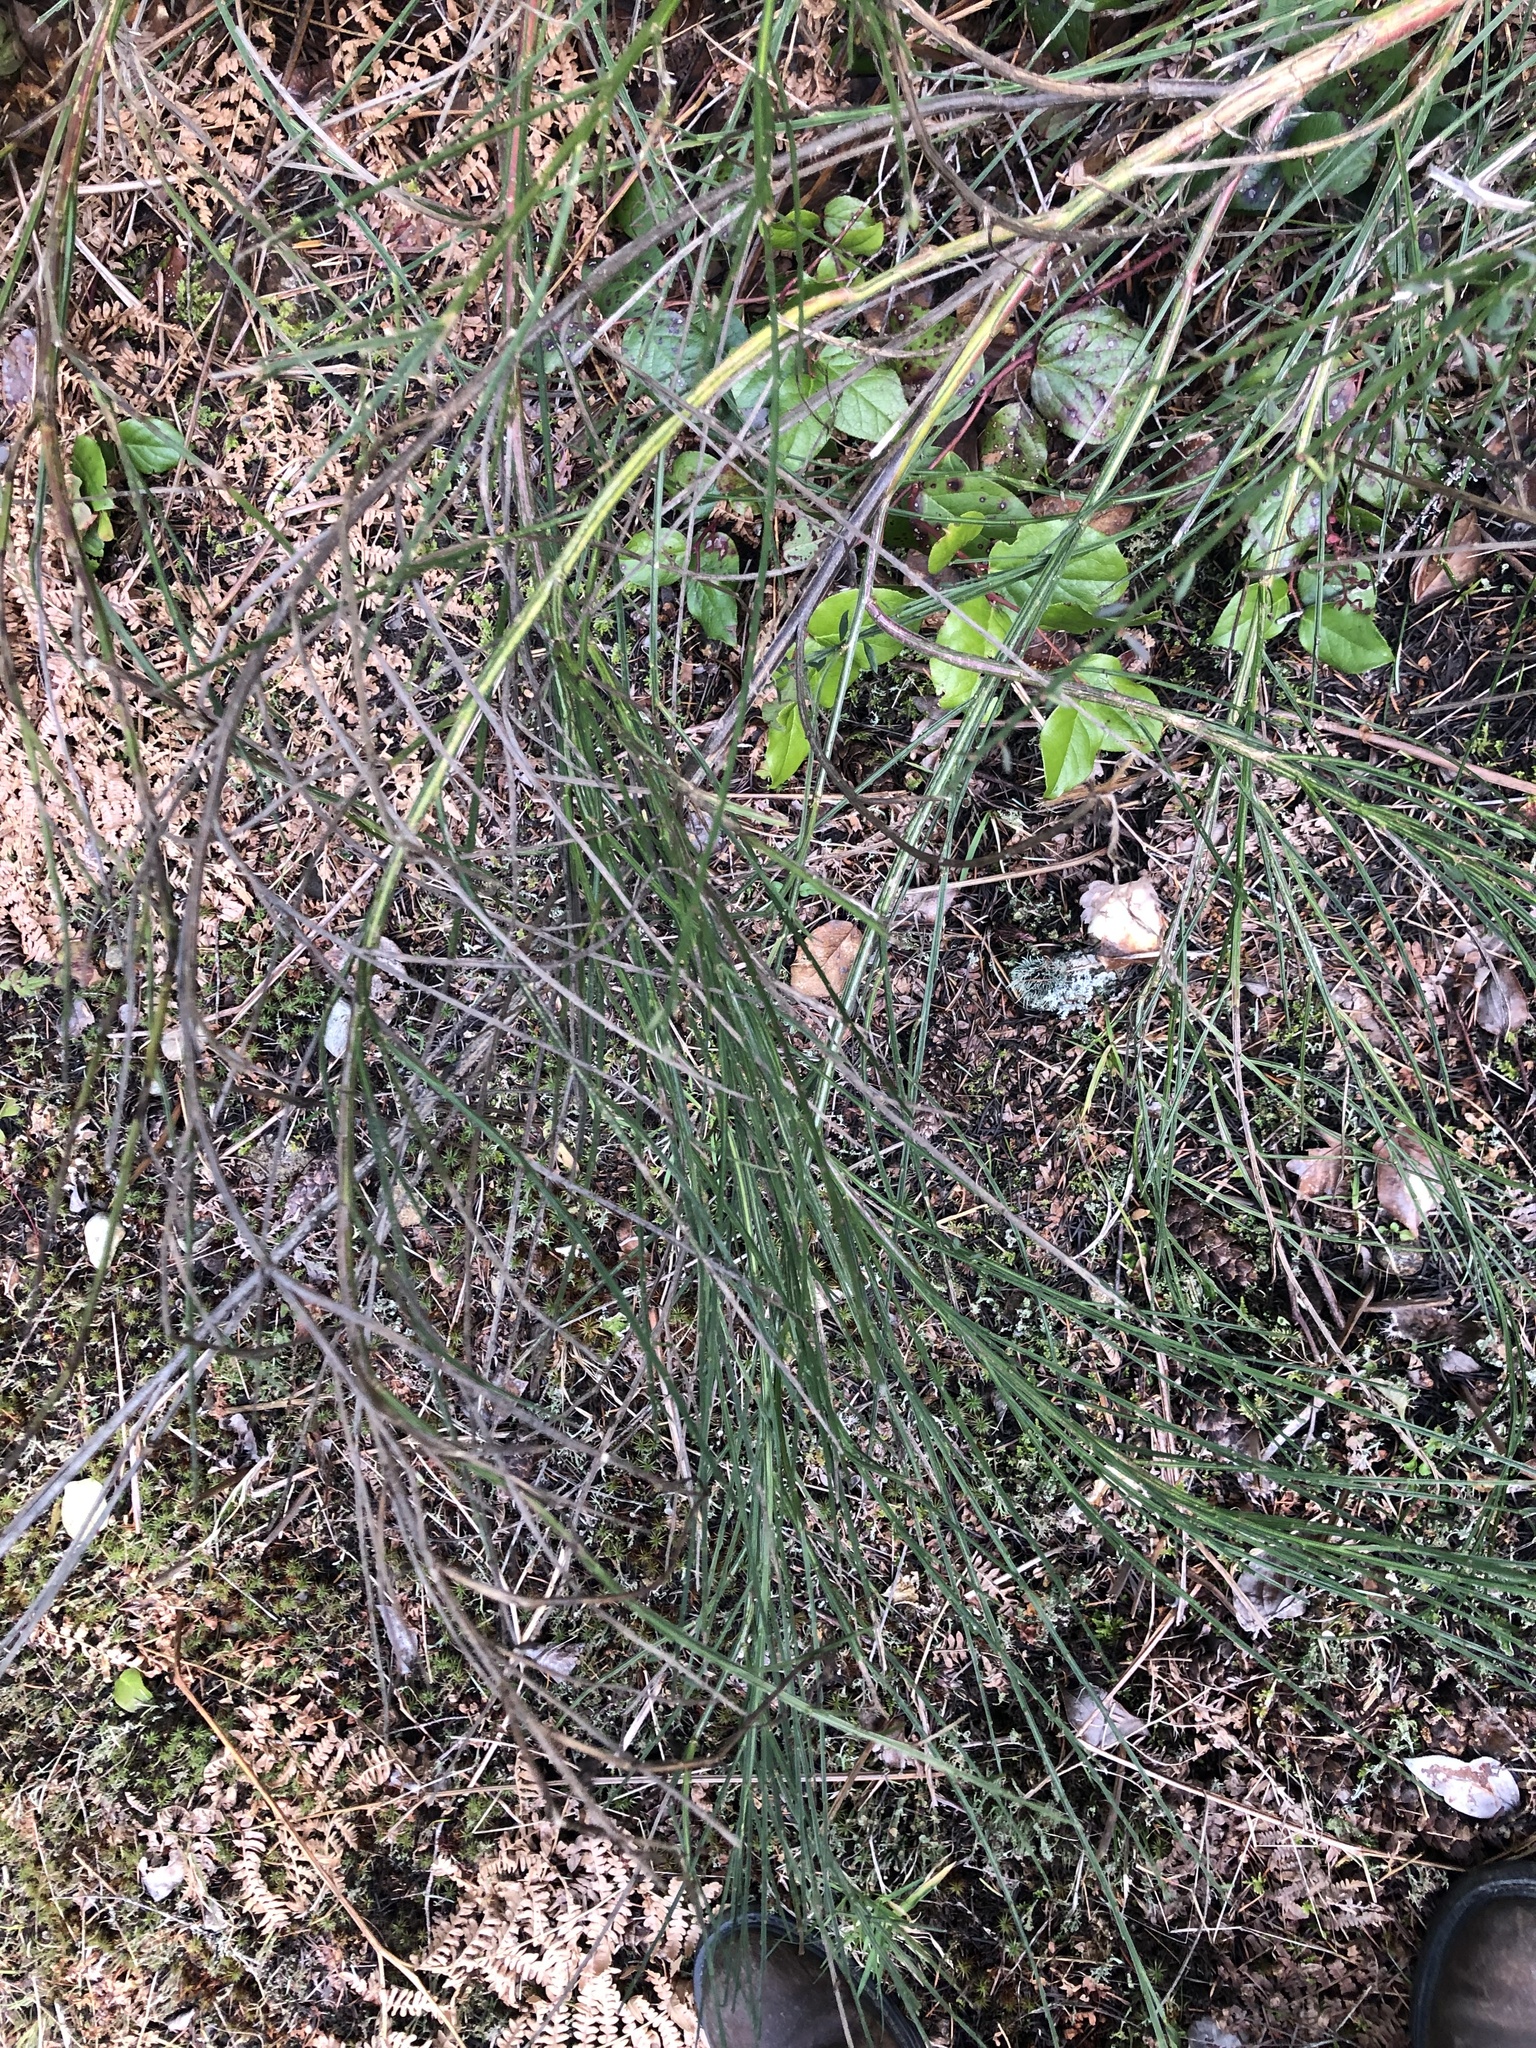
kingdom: Plantae
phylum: Tracheophyta
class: Magnoliopsida
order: Fabales
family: Fabaceae
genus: Cytisus
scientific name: Cytisus scoparius
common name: Scotch broom
